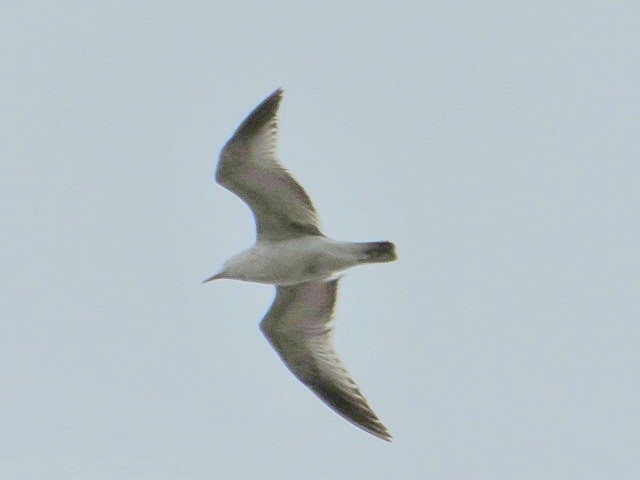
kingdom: Animalia
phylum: Chordata
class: Aves
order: Charadriiformes
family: Laridae
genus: Larus
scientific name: Larus delawarensis
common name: Ring-billed gull
